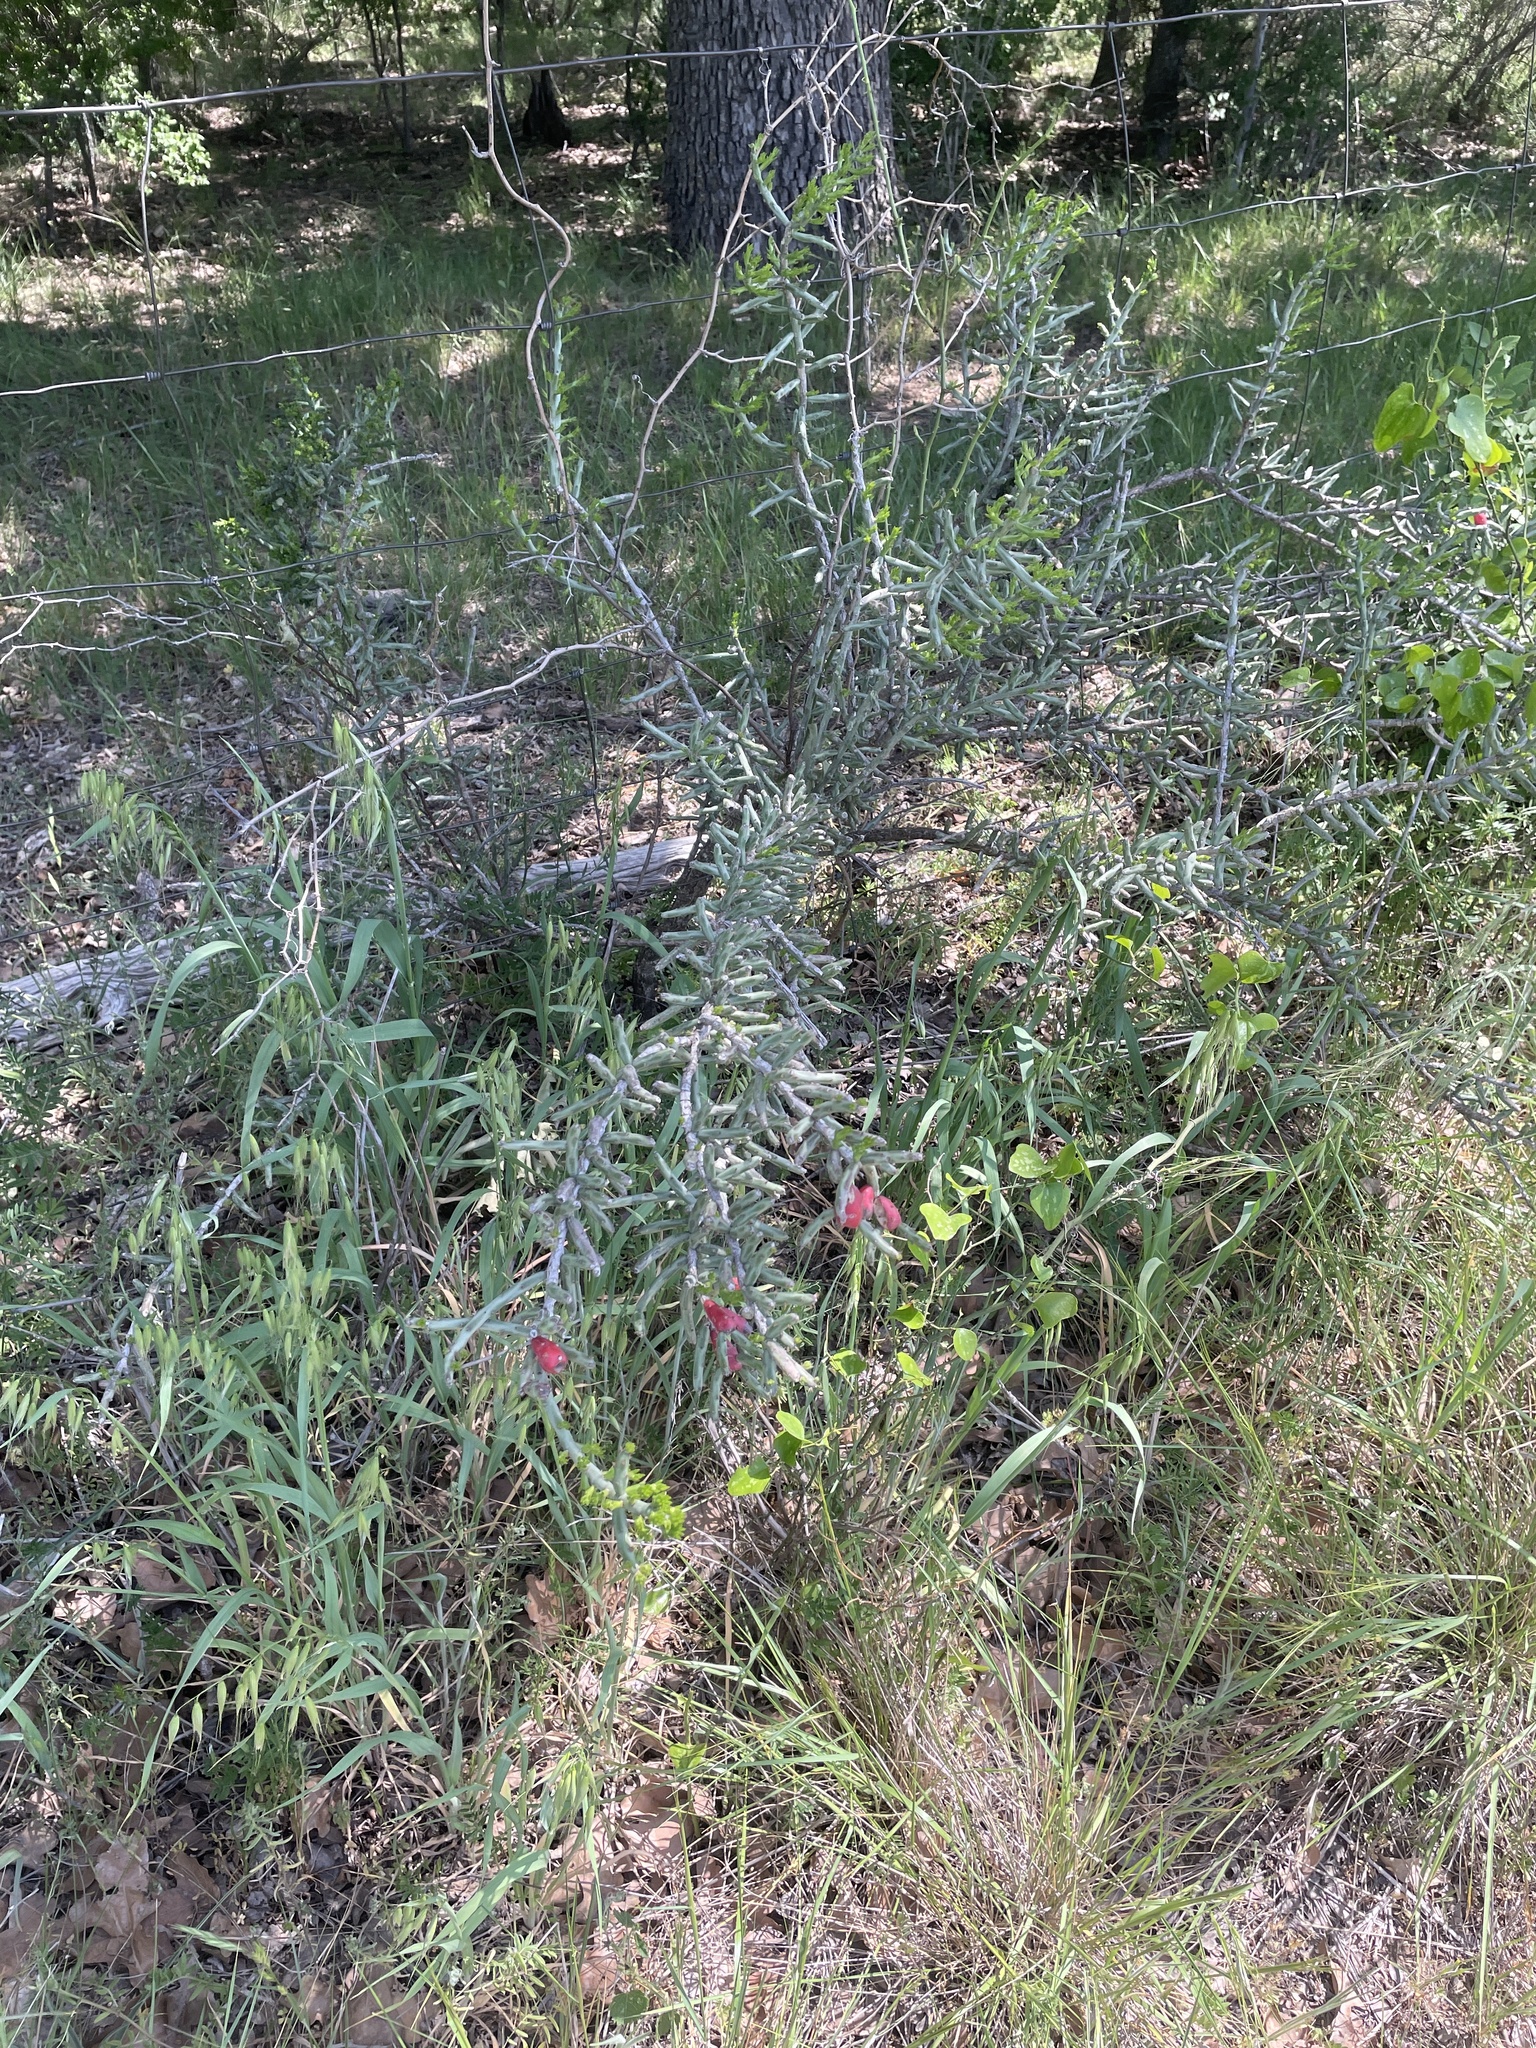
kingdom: Plantae
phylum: Tracheophyta
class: Magnoliopsida
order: Caryophyllales
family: Cactaceae
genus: Cylindropuntia
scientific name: Cylindropuntia leptocaulis
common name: Christmas cactus
